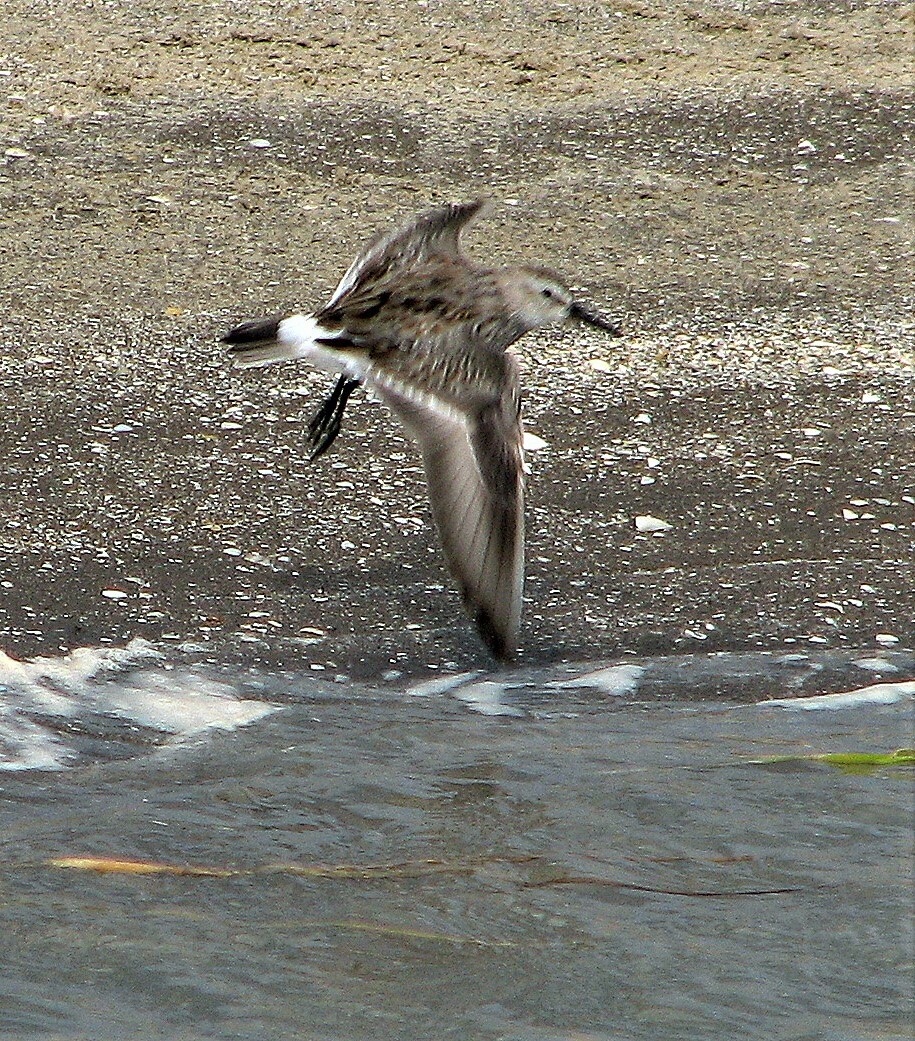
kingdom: Animalia
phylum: Chordata
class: Aves
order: Charadriiformes
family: Scolopacidae
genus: Calidris
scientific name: Calidris fuscicollis
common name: White-rumped sandpiper
